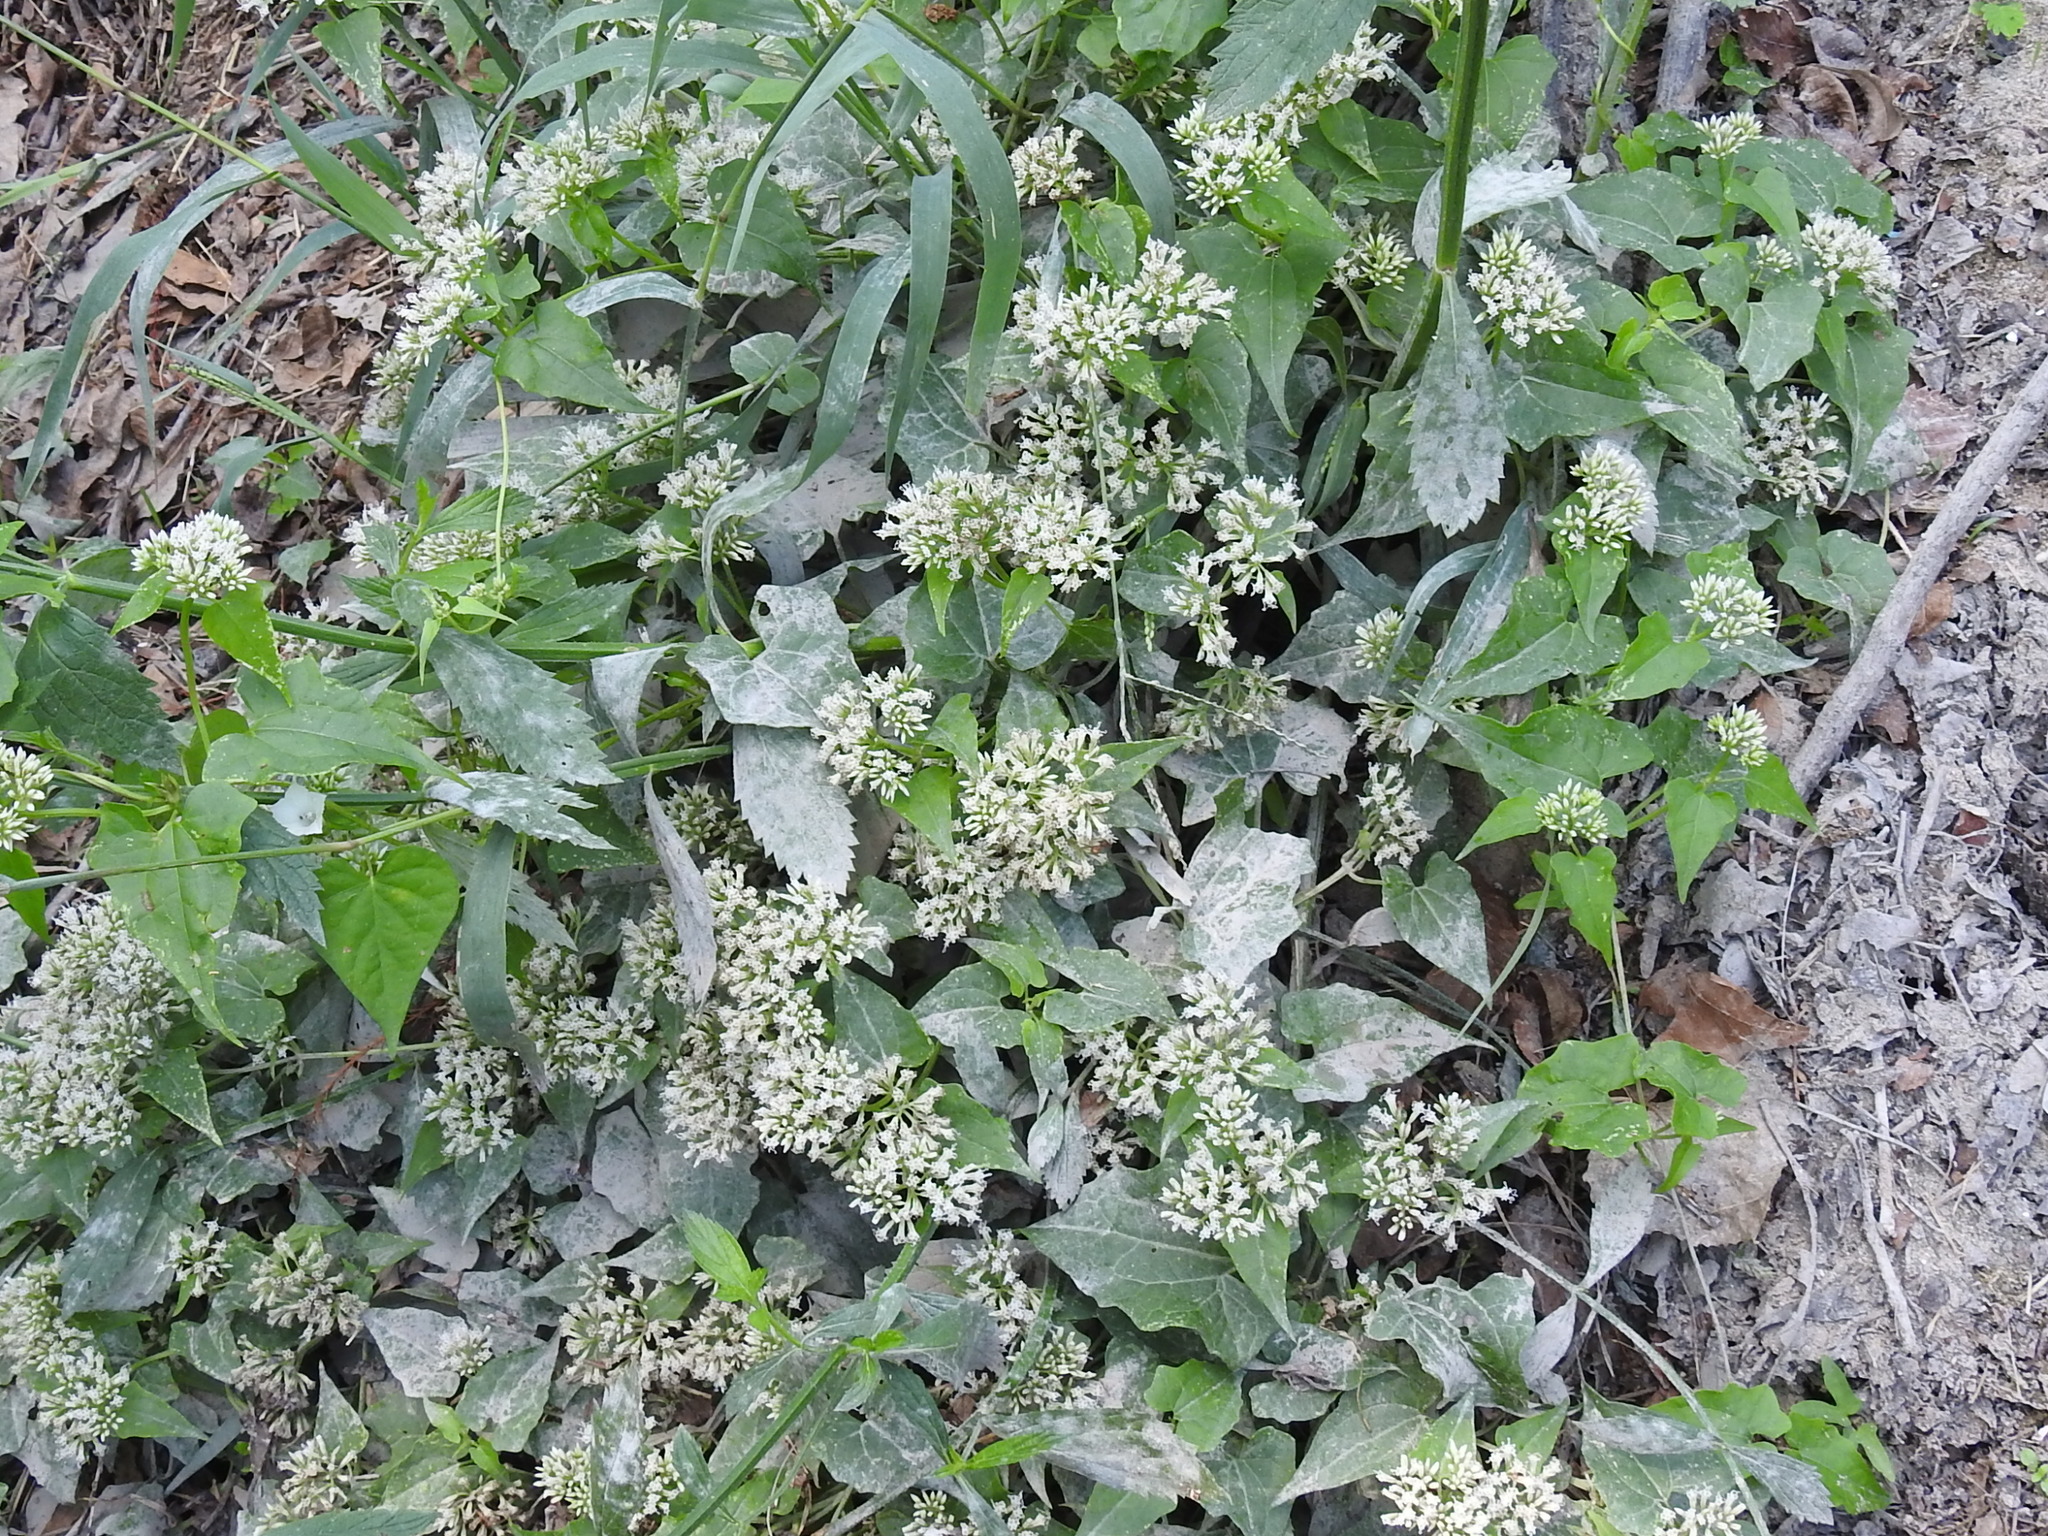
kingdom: Plantae
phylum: Tracheophyta
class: Magnoliopsida
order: Asterales
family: Asteraceae
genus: Mikania
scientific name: Mikania scandens
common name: Climbing hempvine
